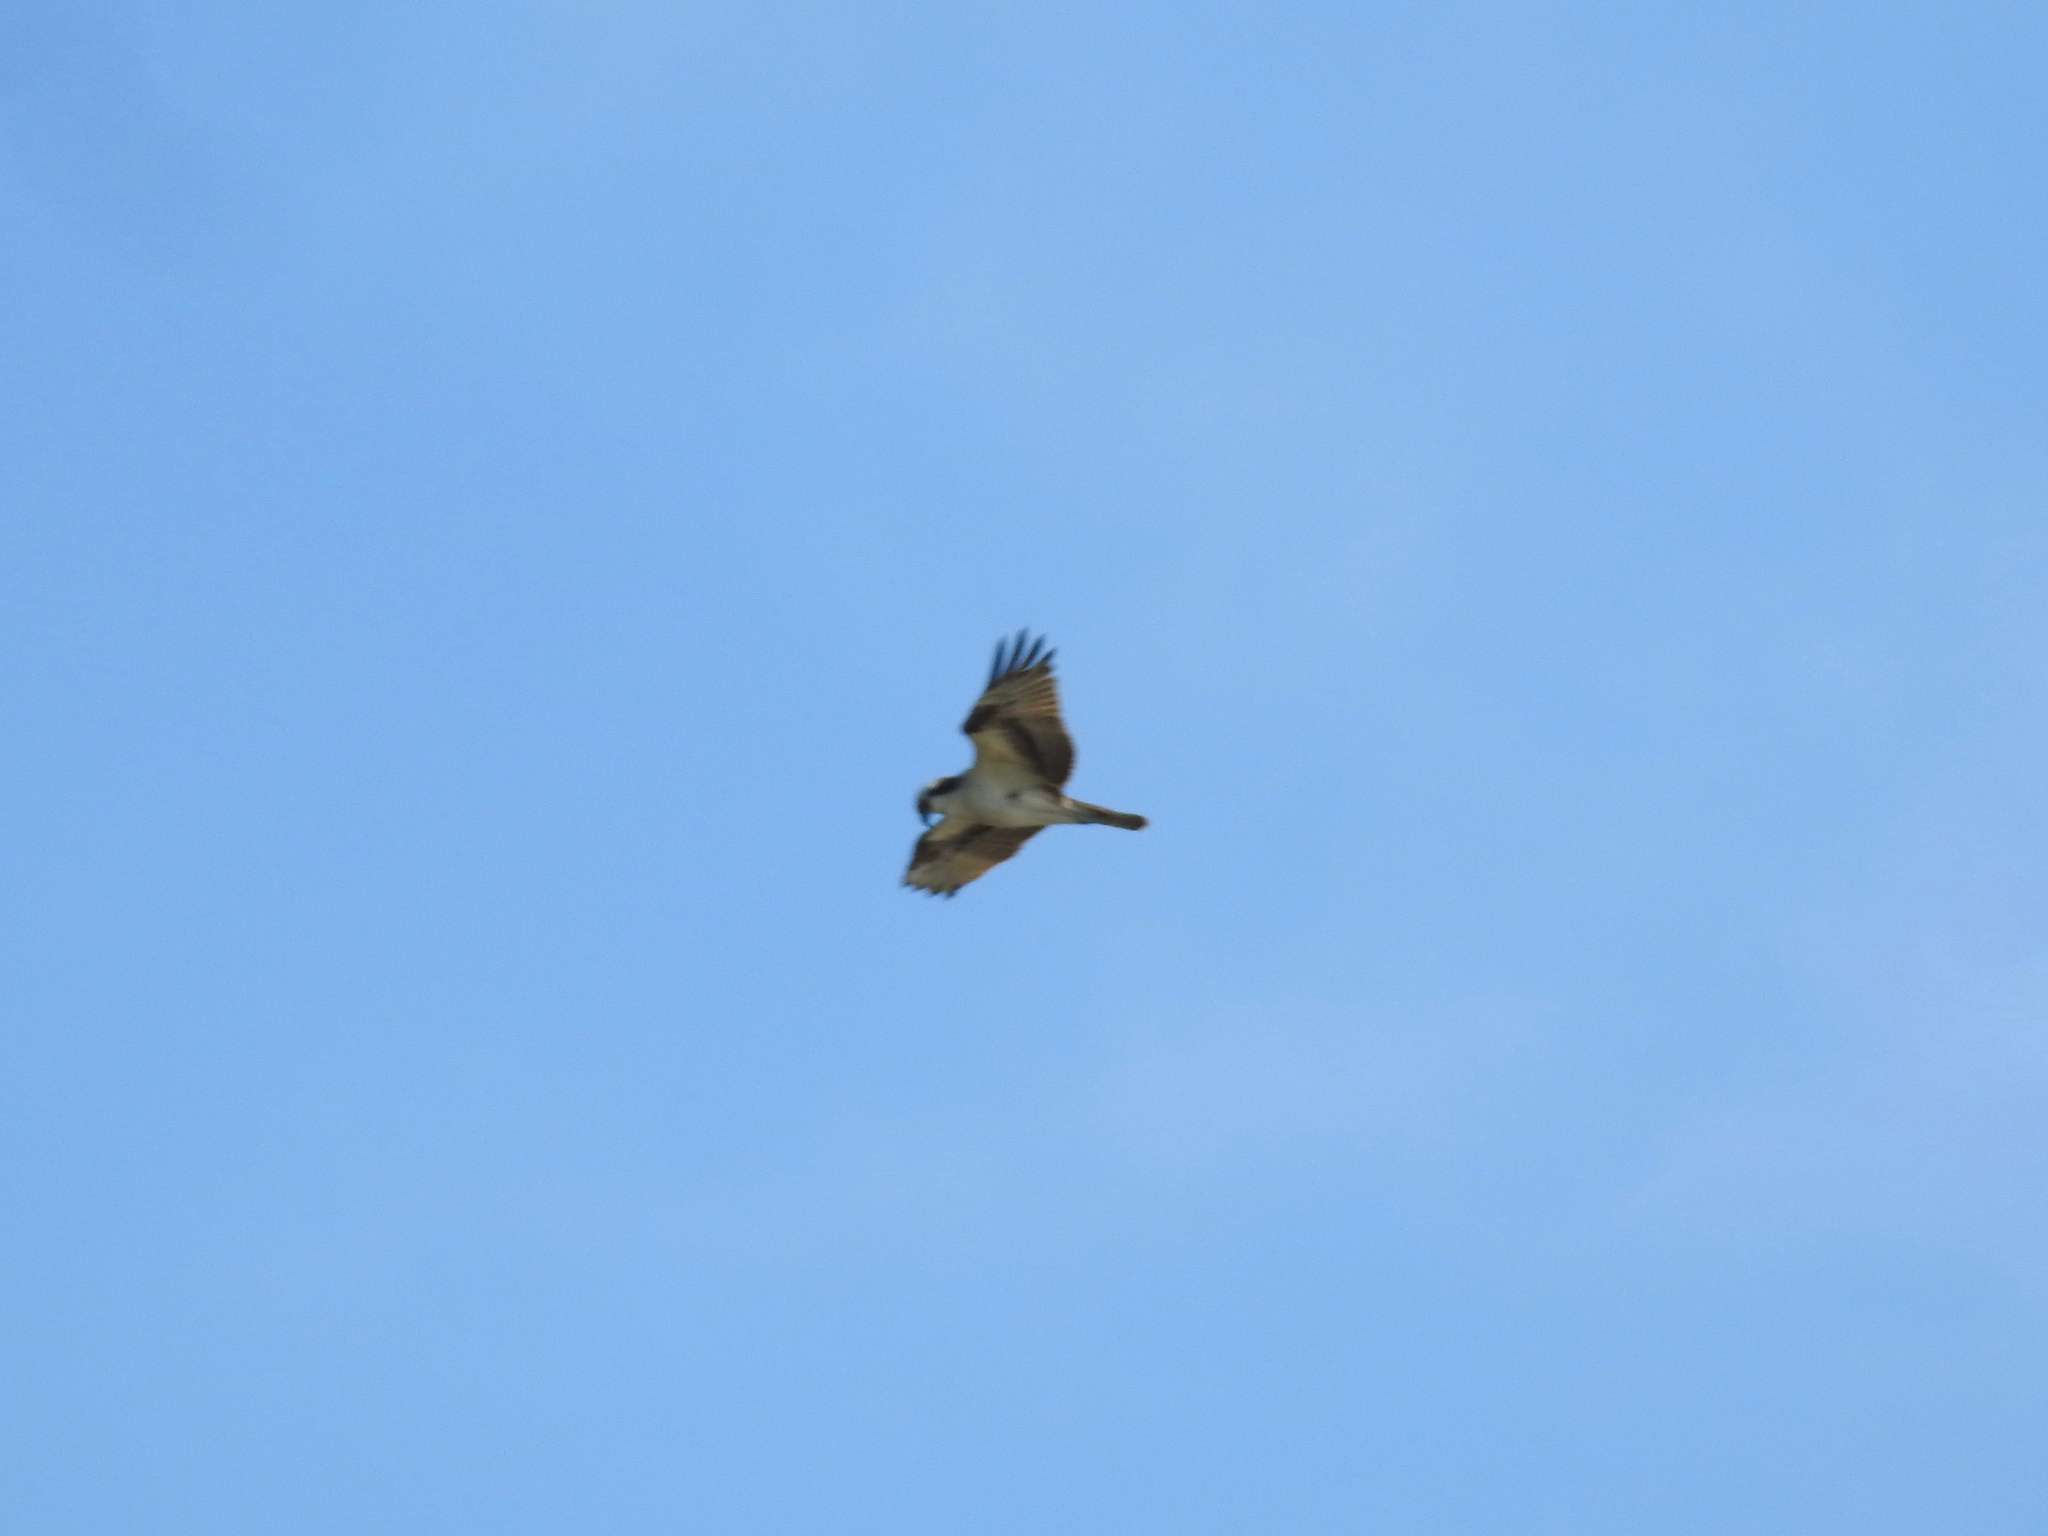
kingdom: Animalia
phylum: Chordata
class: Aves
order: Accipitriformes
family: Pandionidae
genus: Pandion
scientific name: Pandion haliaetus
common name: Osprey
